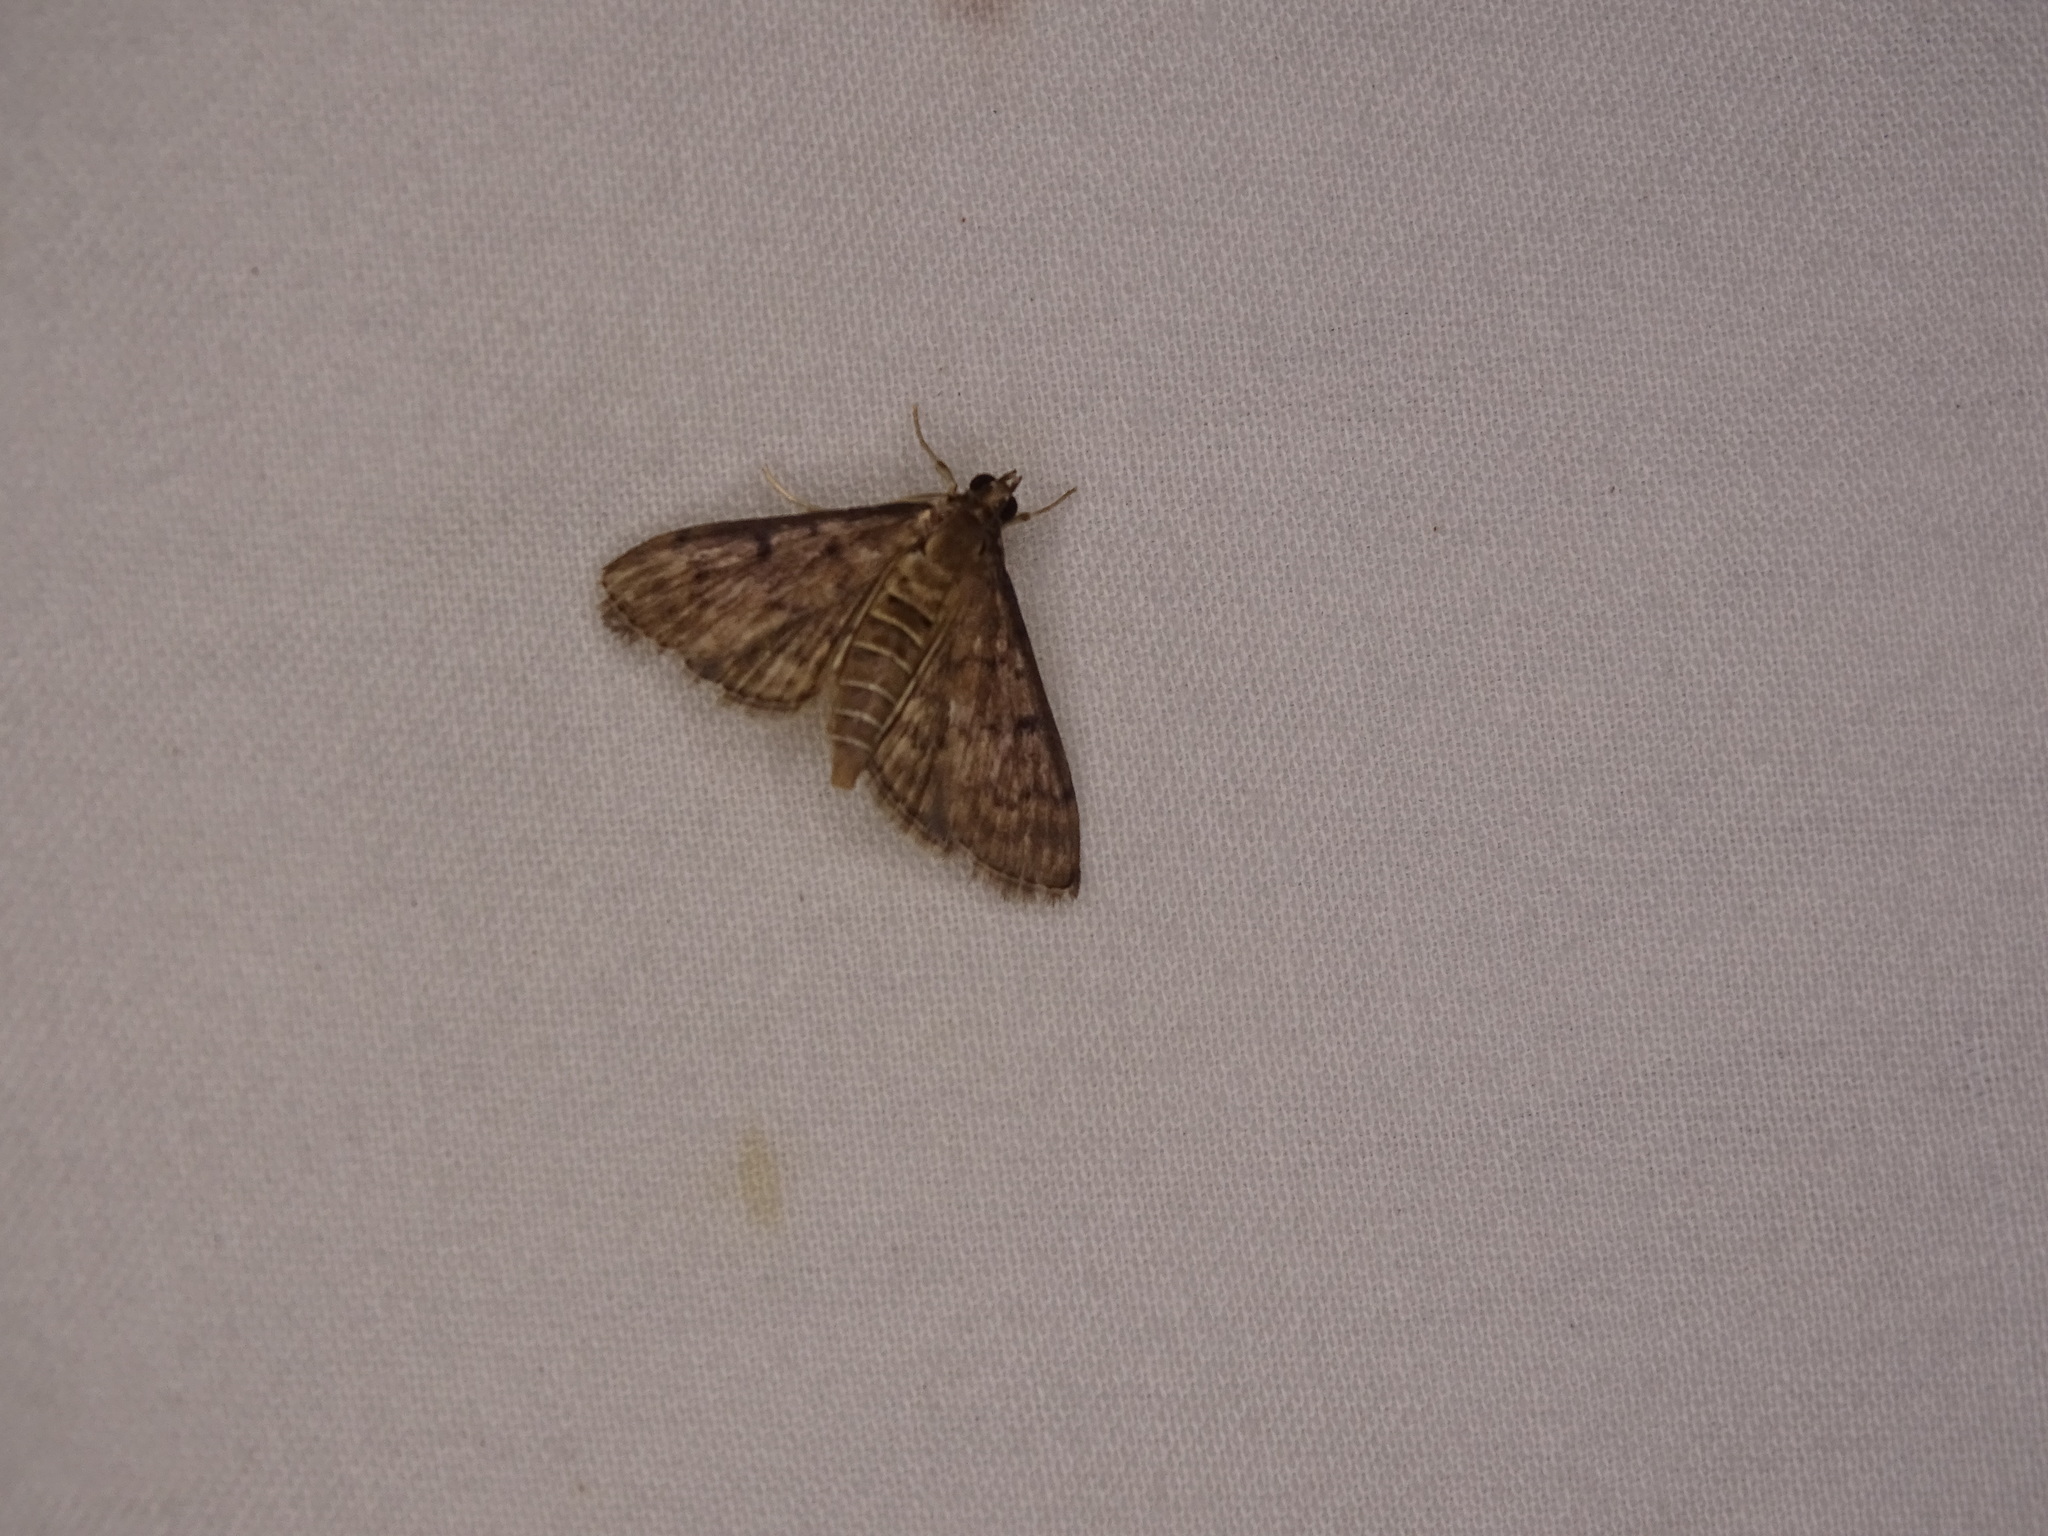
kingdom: Animalia
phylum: Arthropoda
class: Insecta
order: Lepidoptera
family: Crambidae
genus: Herpetogramma
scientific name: Herpetogramma phaeopteralis
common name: Dusky herpetogramma moth
